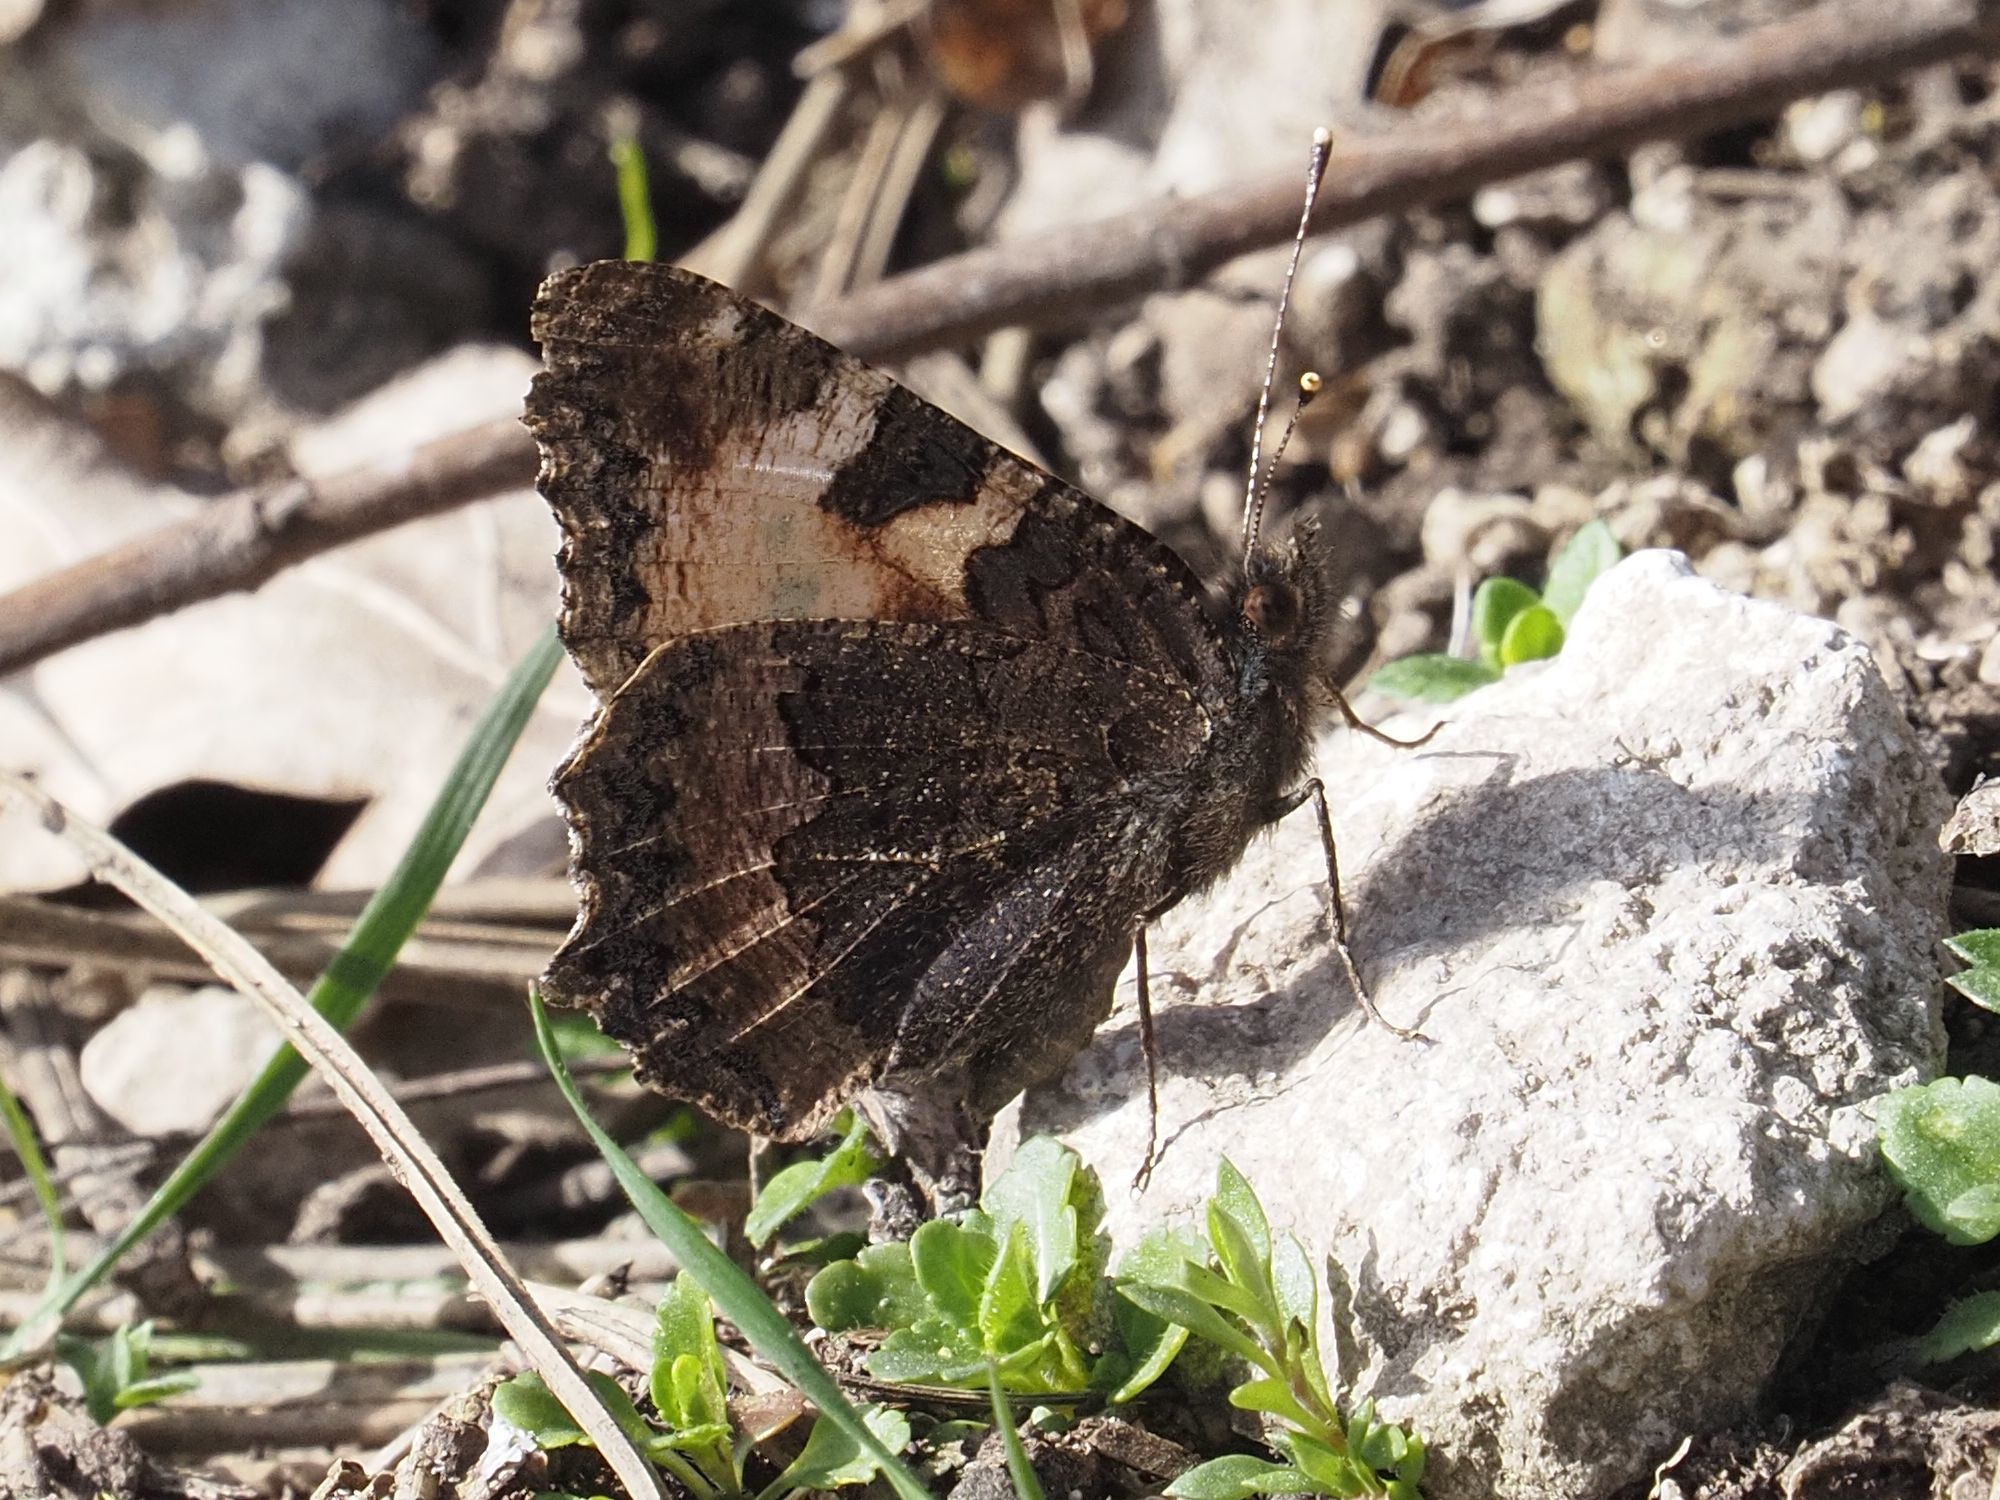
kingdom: Animalia
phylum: Arthropoda
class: Insecta
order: Lepidoptera
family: Nymphalidae
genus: Aglais
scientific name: Aglais urticae
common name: Small tortoiseshell
